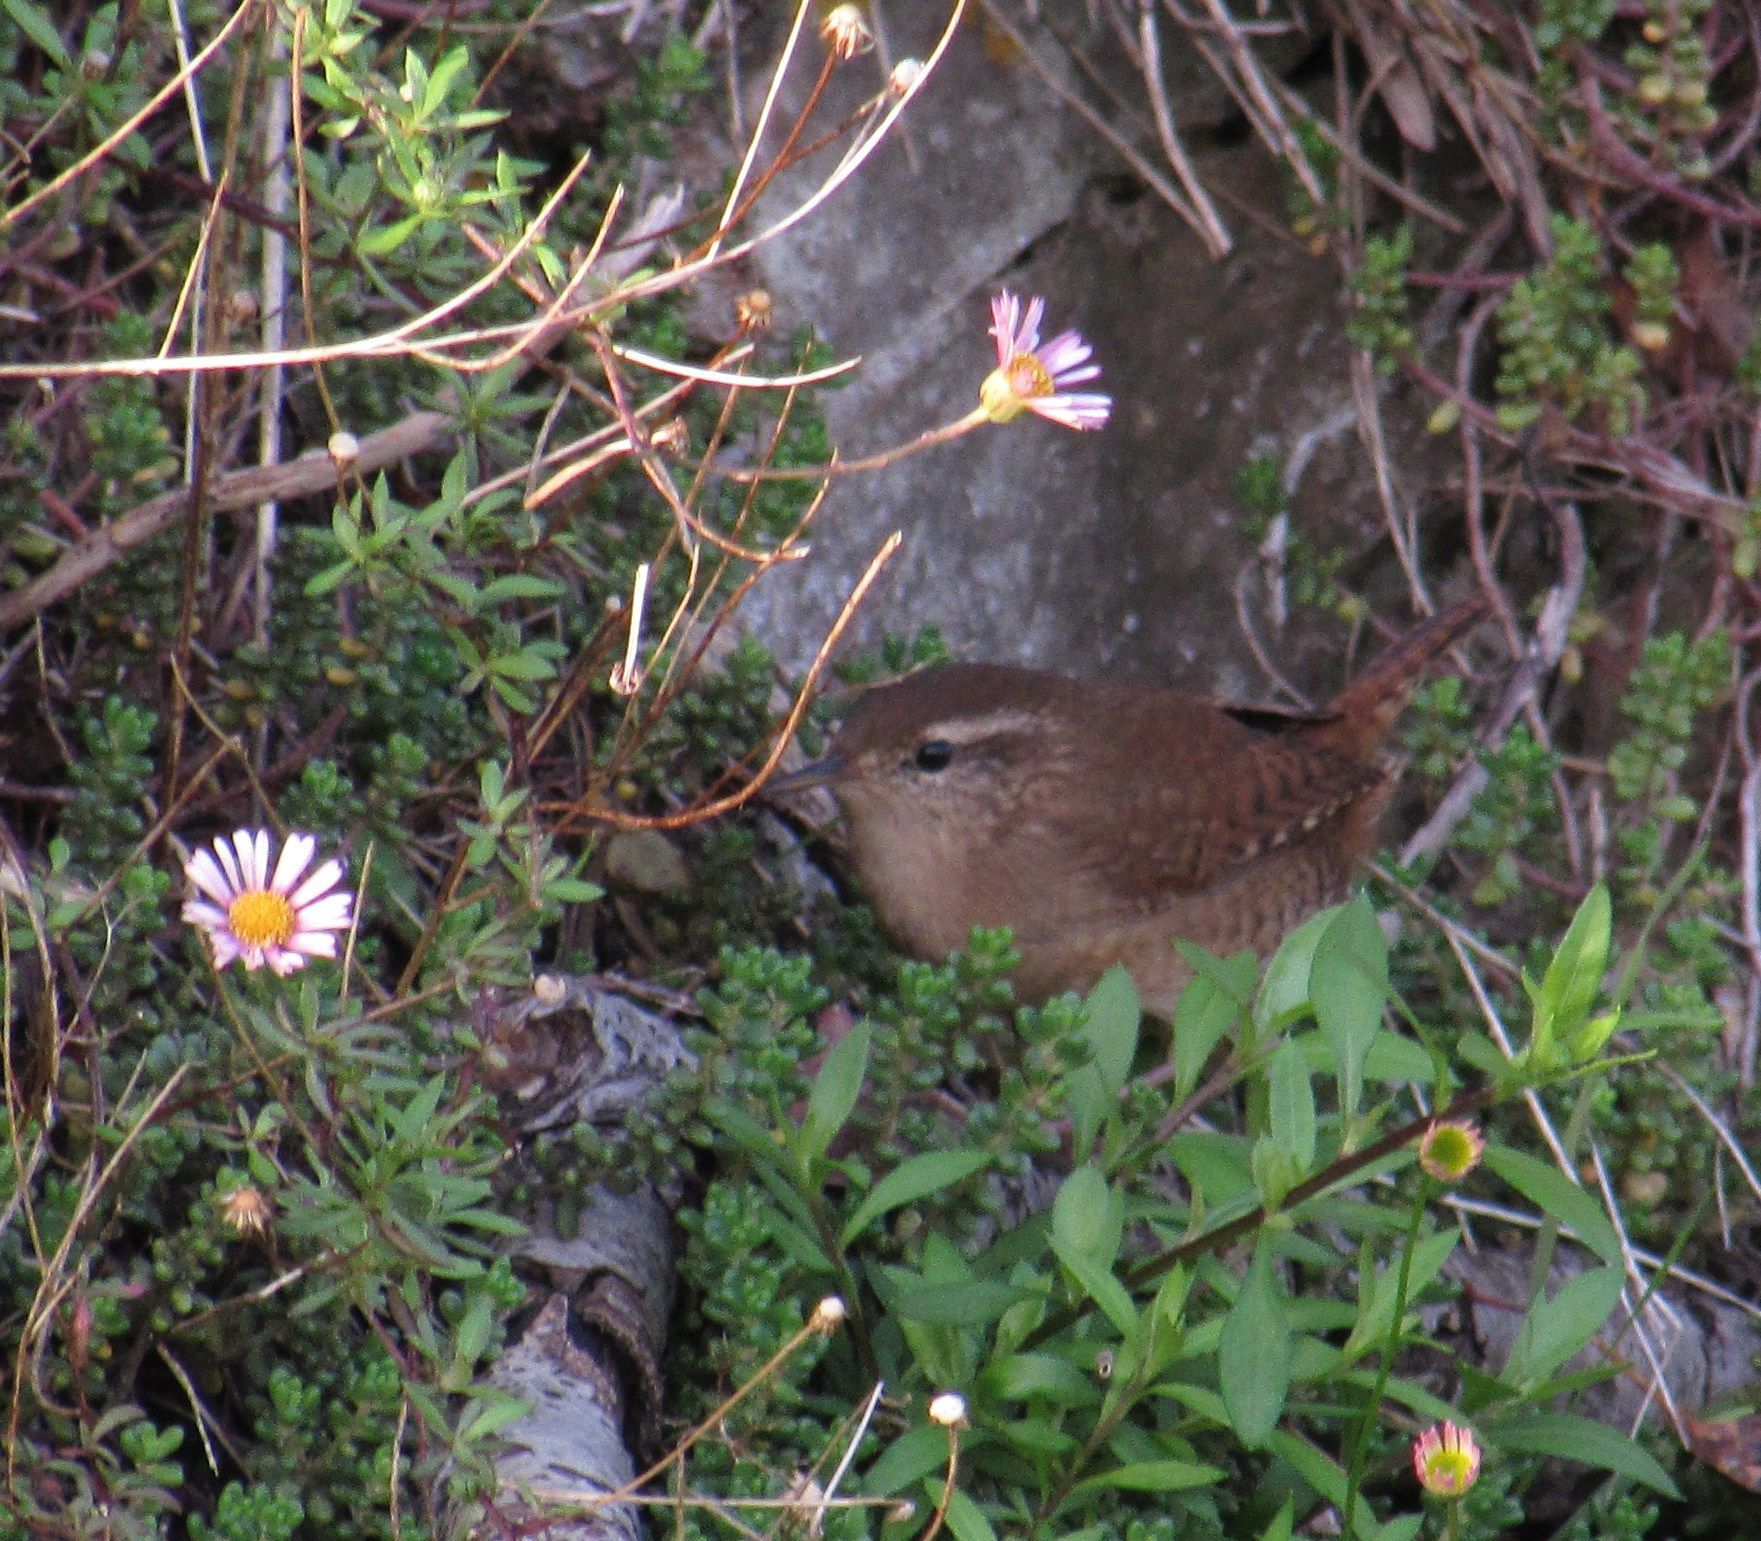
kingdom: Animalia
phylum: Chordata
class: Aves
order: Passeriformes
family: Troglodytidae
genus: Troglodytes
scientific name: Troglodytes troglodytes
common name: Eurasian wren
